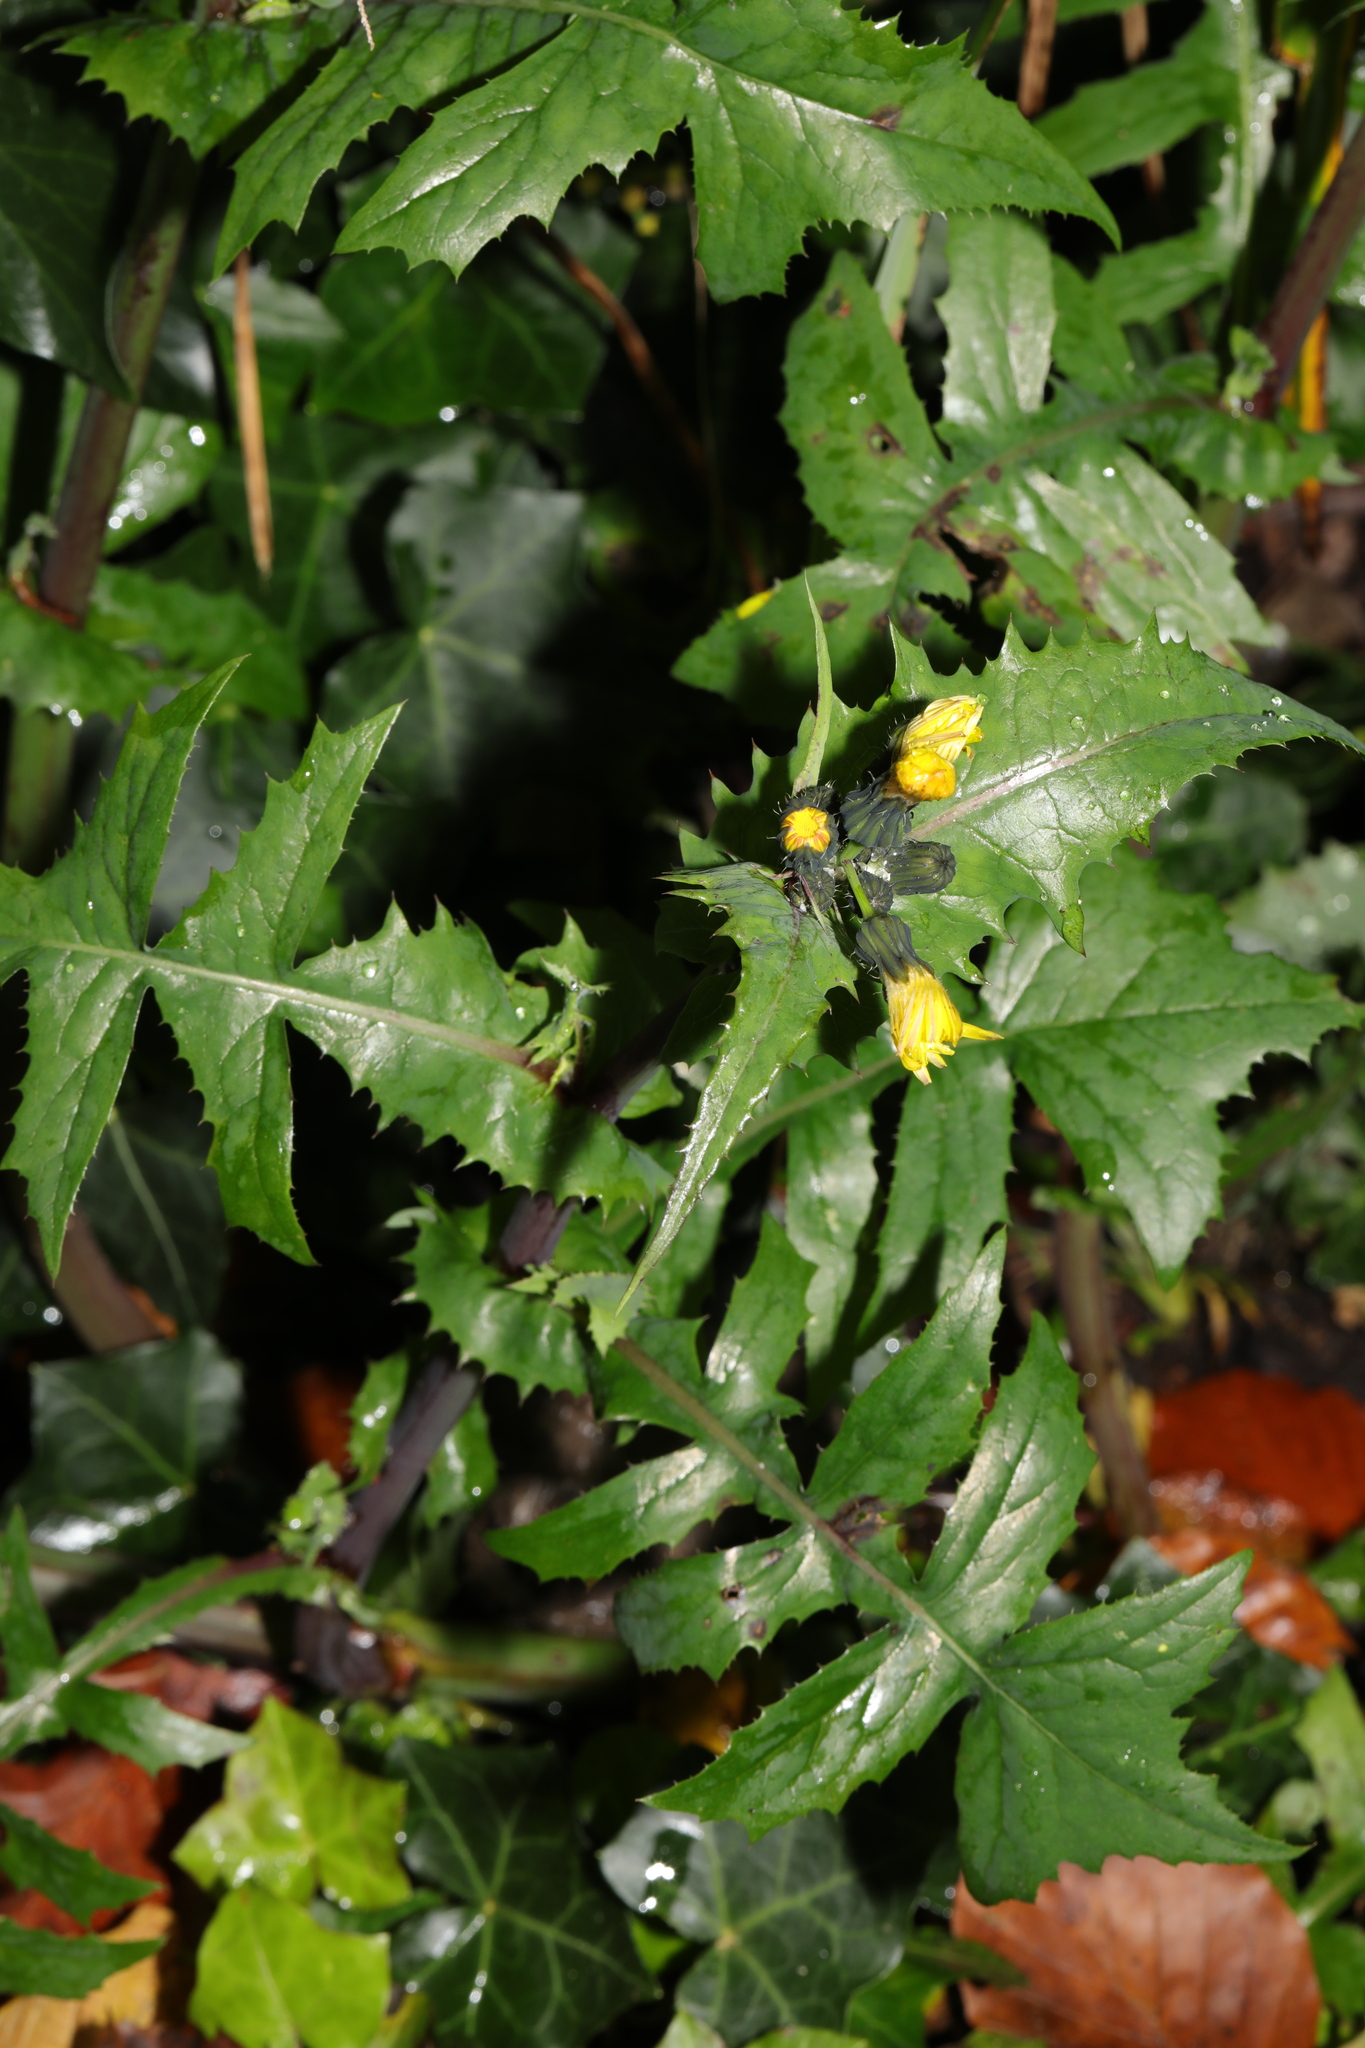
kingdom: Plantae
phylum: Tracheophyta
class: Magnoliopsida
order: Asterales
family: Asteraceae
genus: Sonchus
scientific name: Sonchus oleraceus
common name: Common sowthistle
